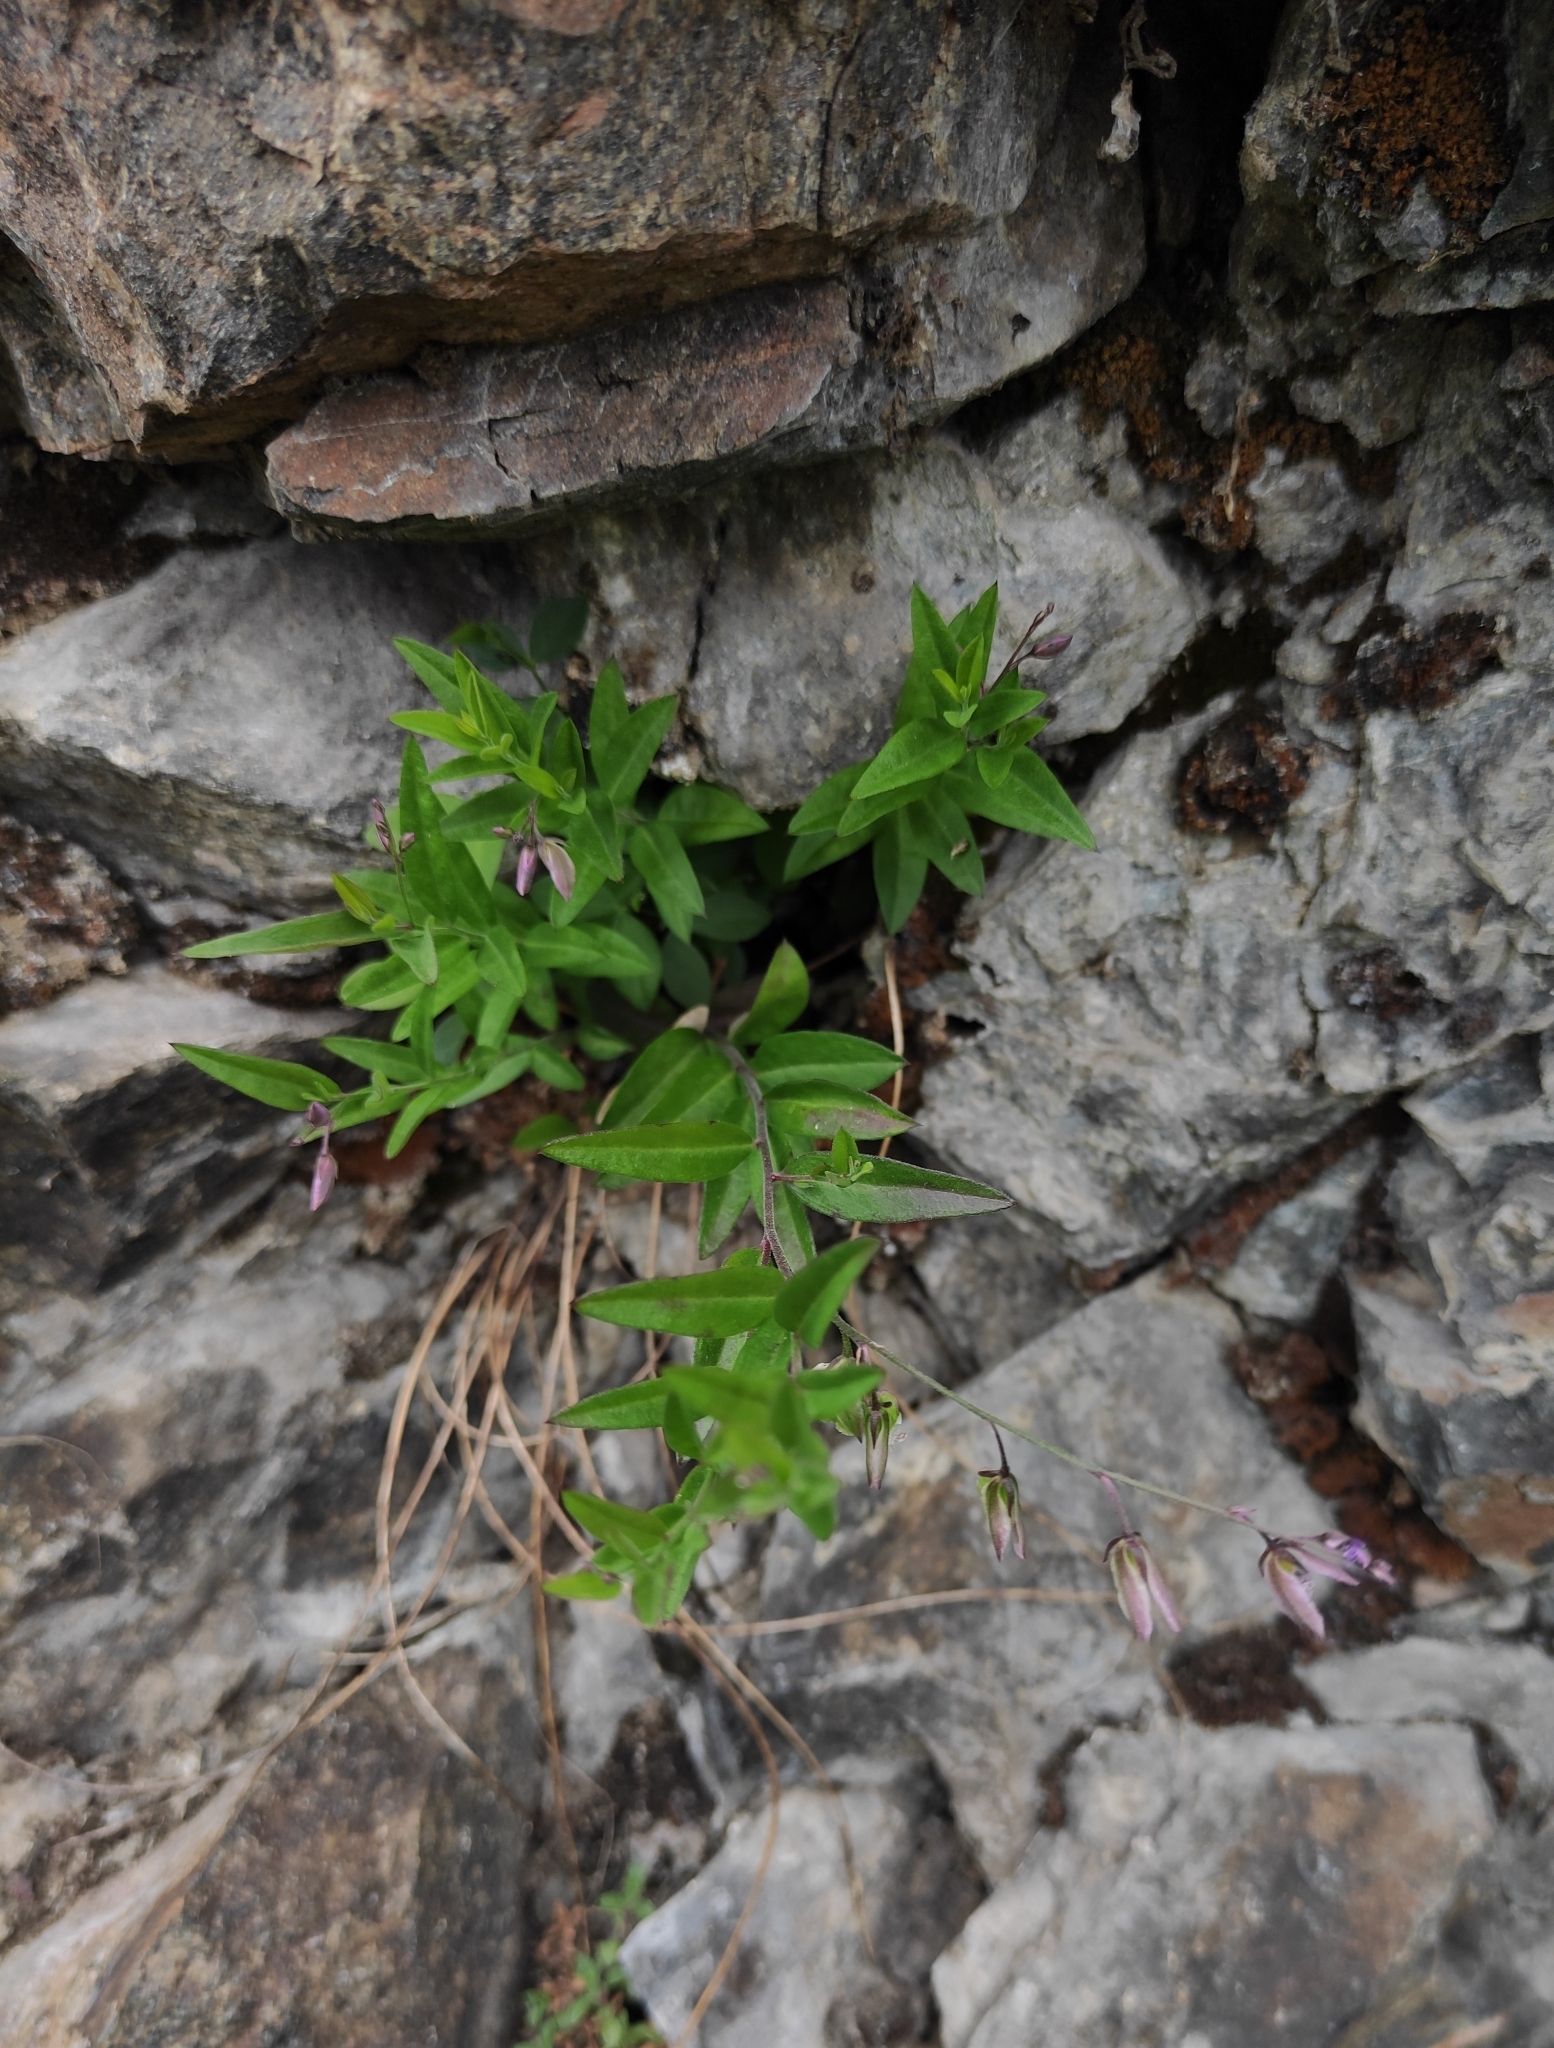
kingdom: Plantae
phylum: Tracheophyta
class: Magnoliopsida
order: Fabales
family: Polygalaceae
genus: Polygala
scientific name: Polygala sibirica
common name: Siberian polygala
